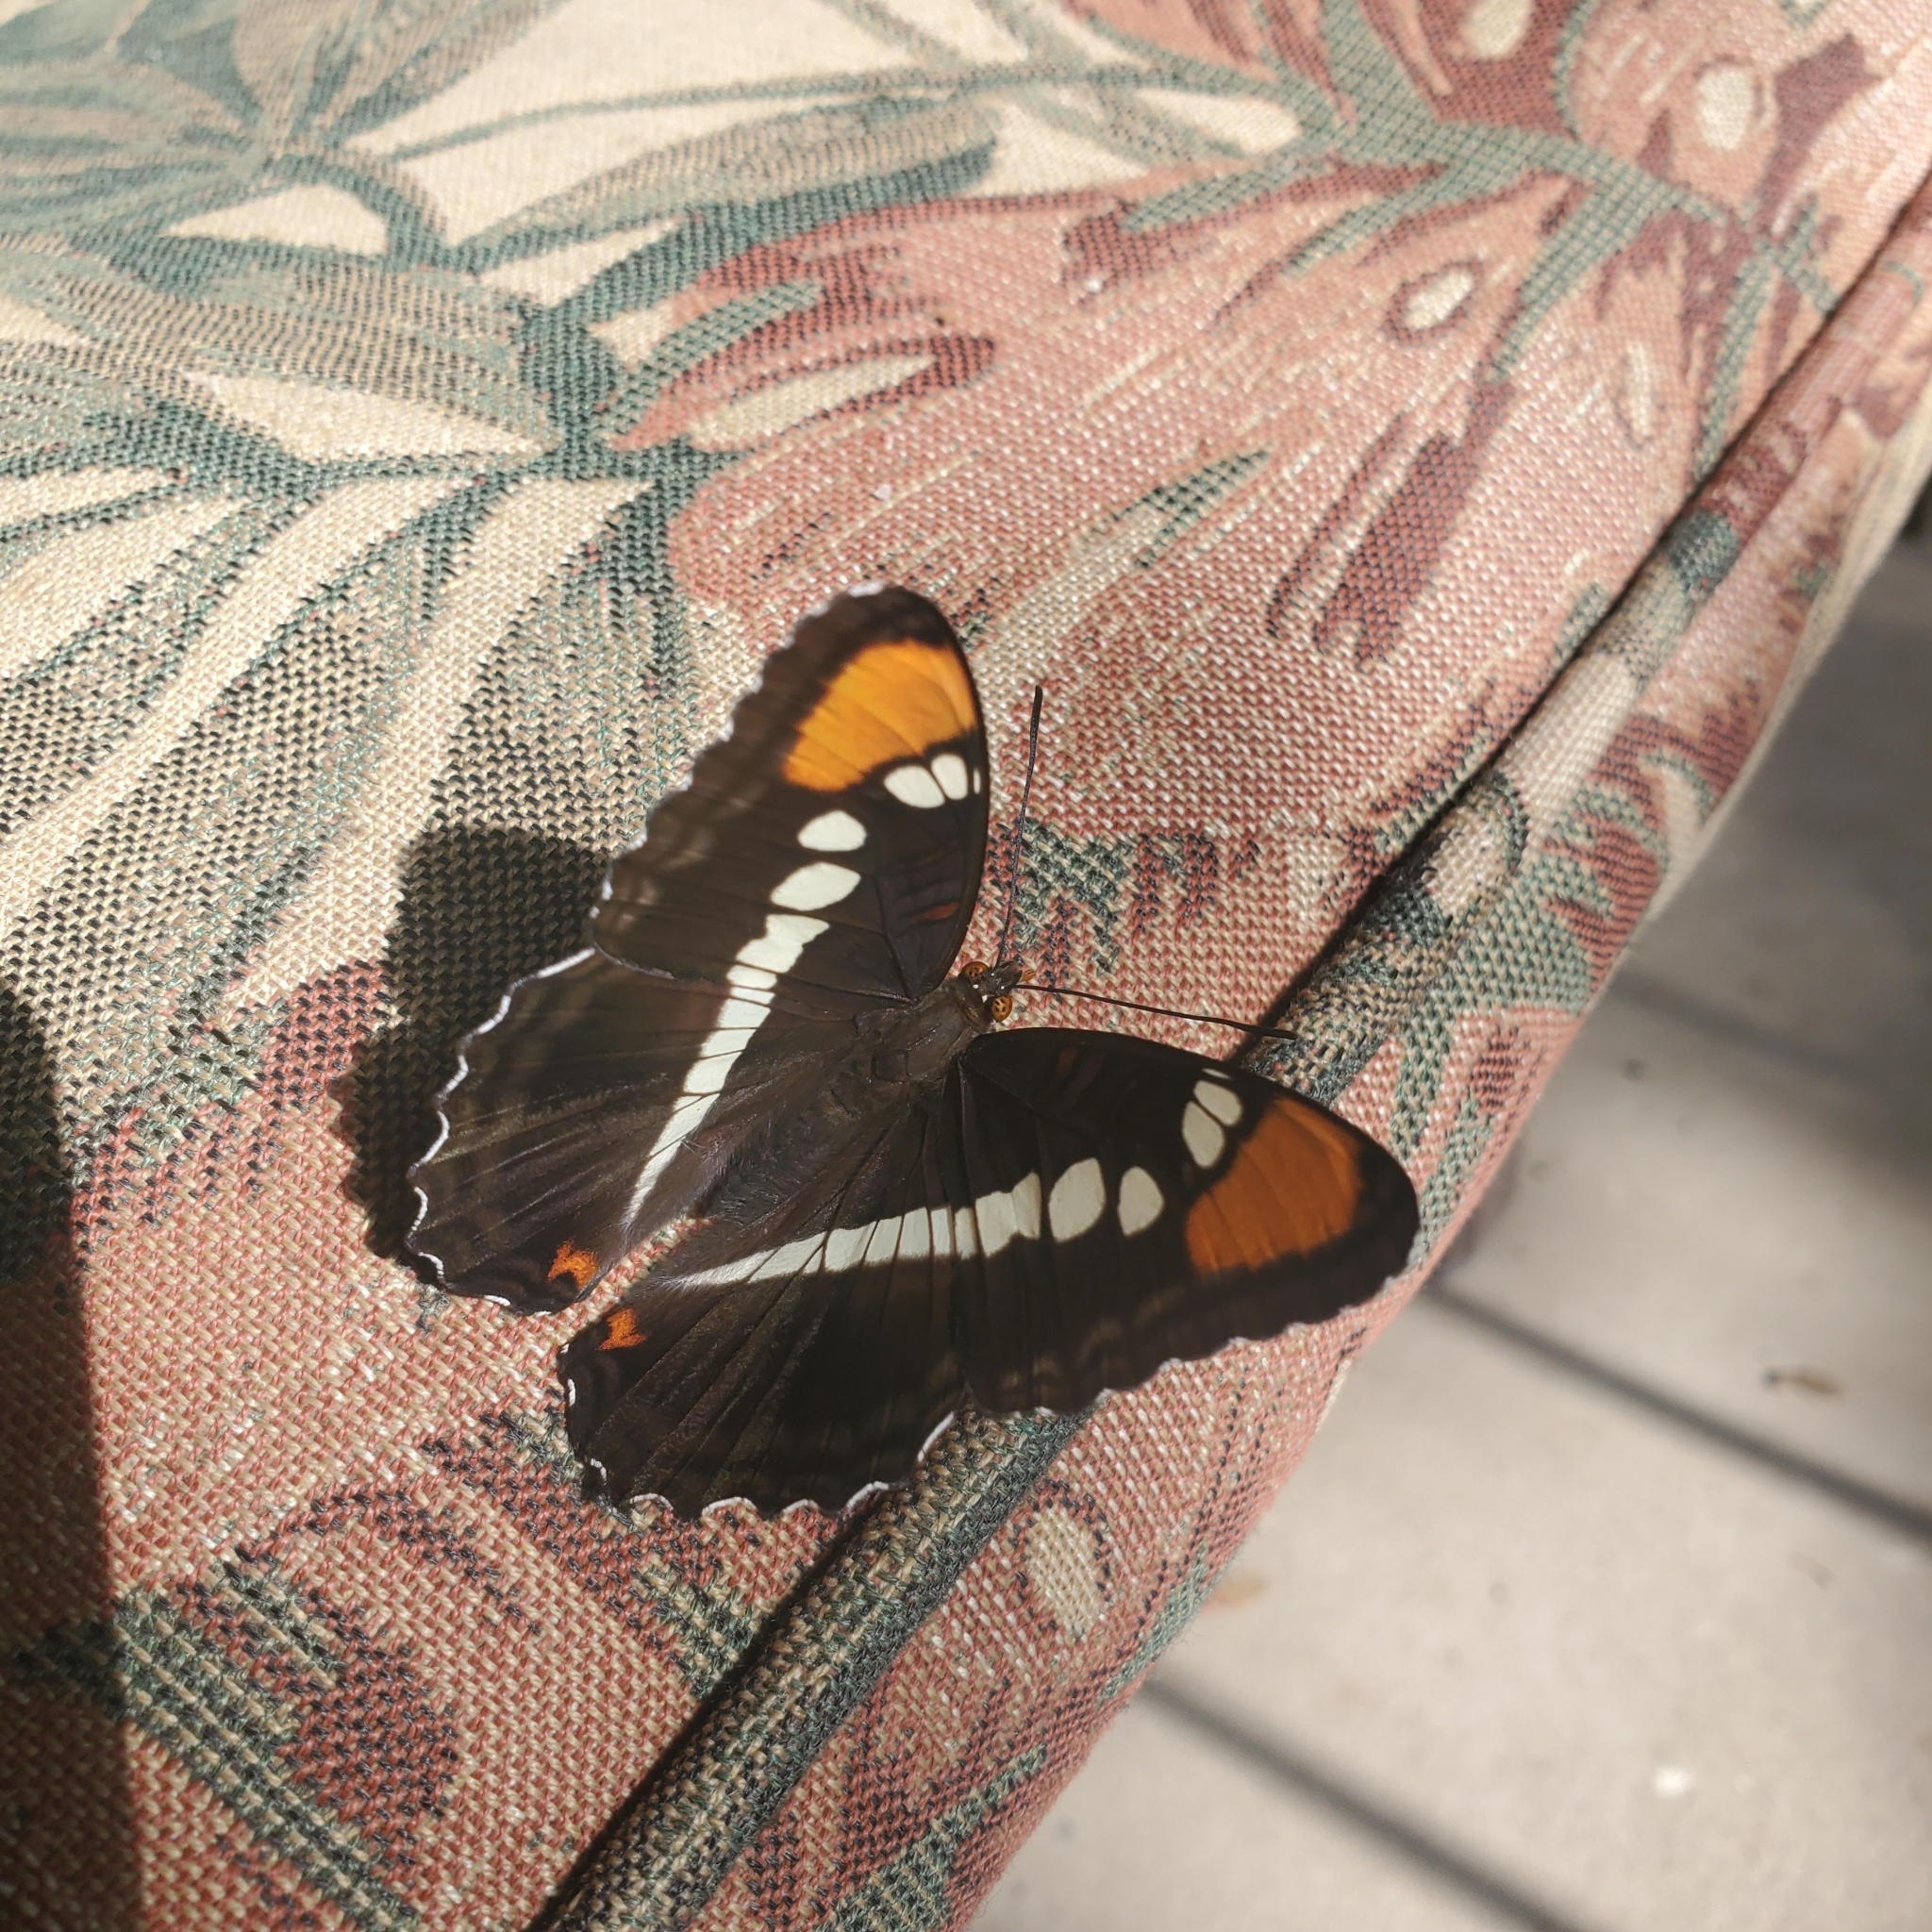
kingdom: Animalia
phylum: Arthropoda
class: Insecta
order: Lepidoptera
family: Nymphalidae
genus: Limenitis
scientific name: Limenitis bredowii
